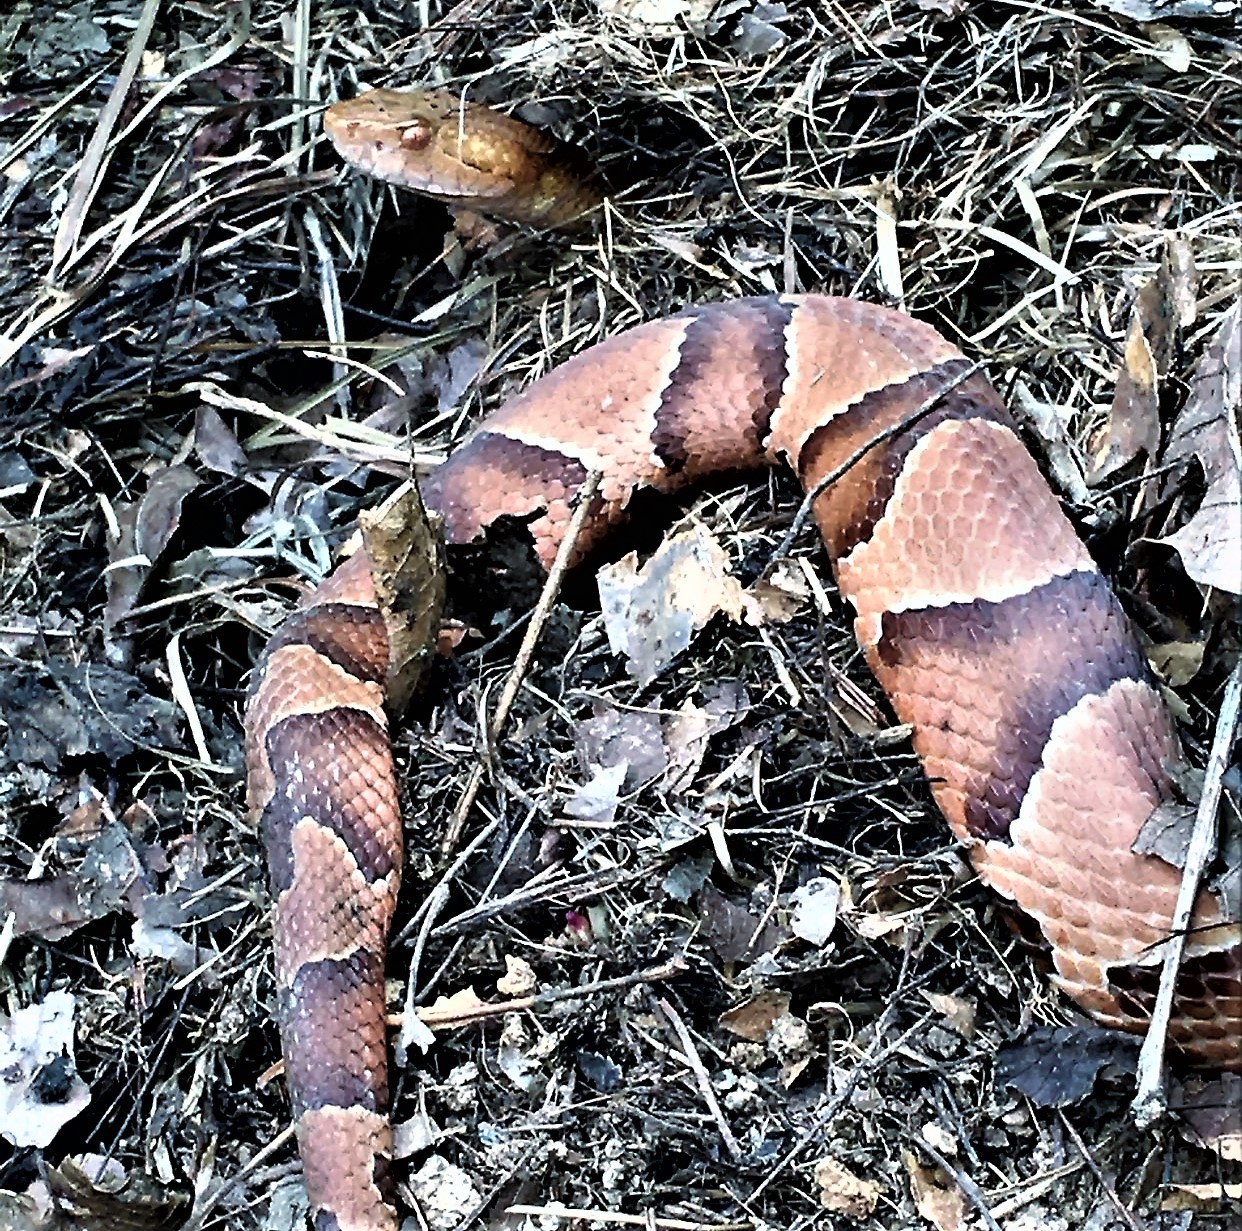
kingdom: Animalia
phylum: Chordata
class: Squamata
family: Viperidae
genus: Agkistrodon
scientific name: Agkistrodon contortrix
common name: Northern copperhead
